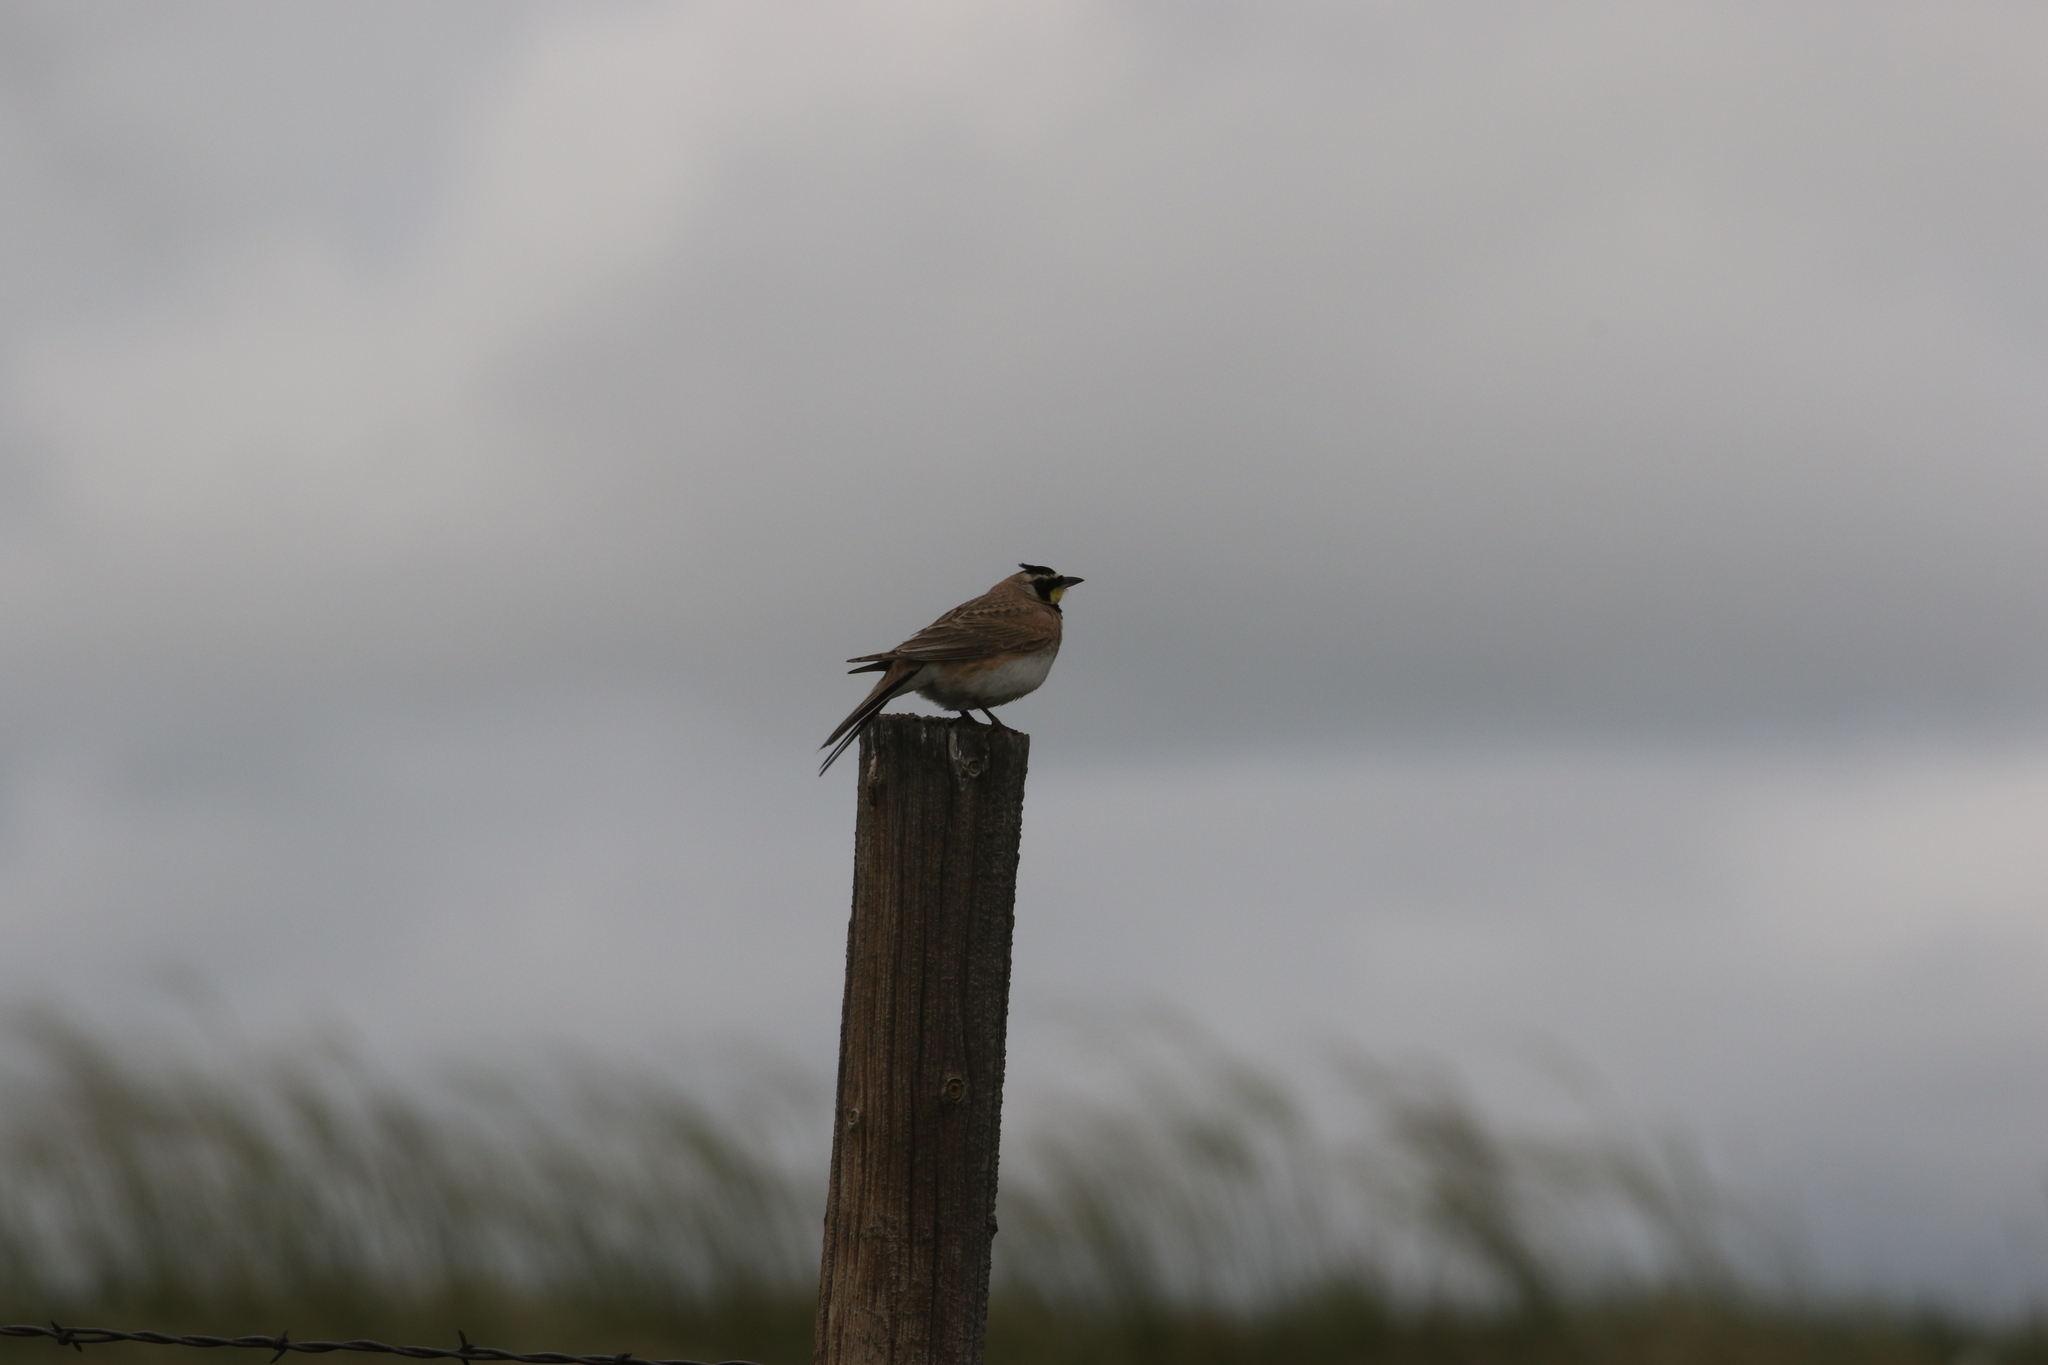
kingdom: Animalia
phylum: Chordata
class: Aves
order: Passeriformes
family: Alaudidae
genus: Eremophila
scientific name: Eremophila alpestris
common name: Horned lark
